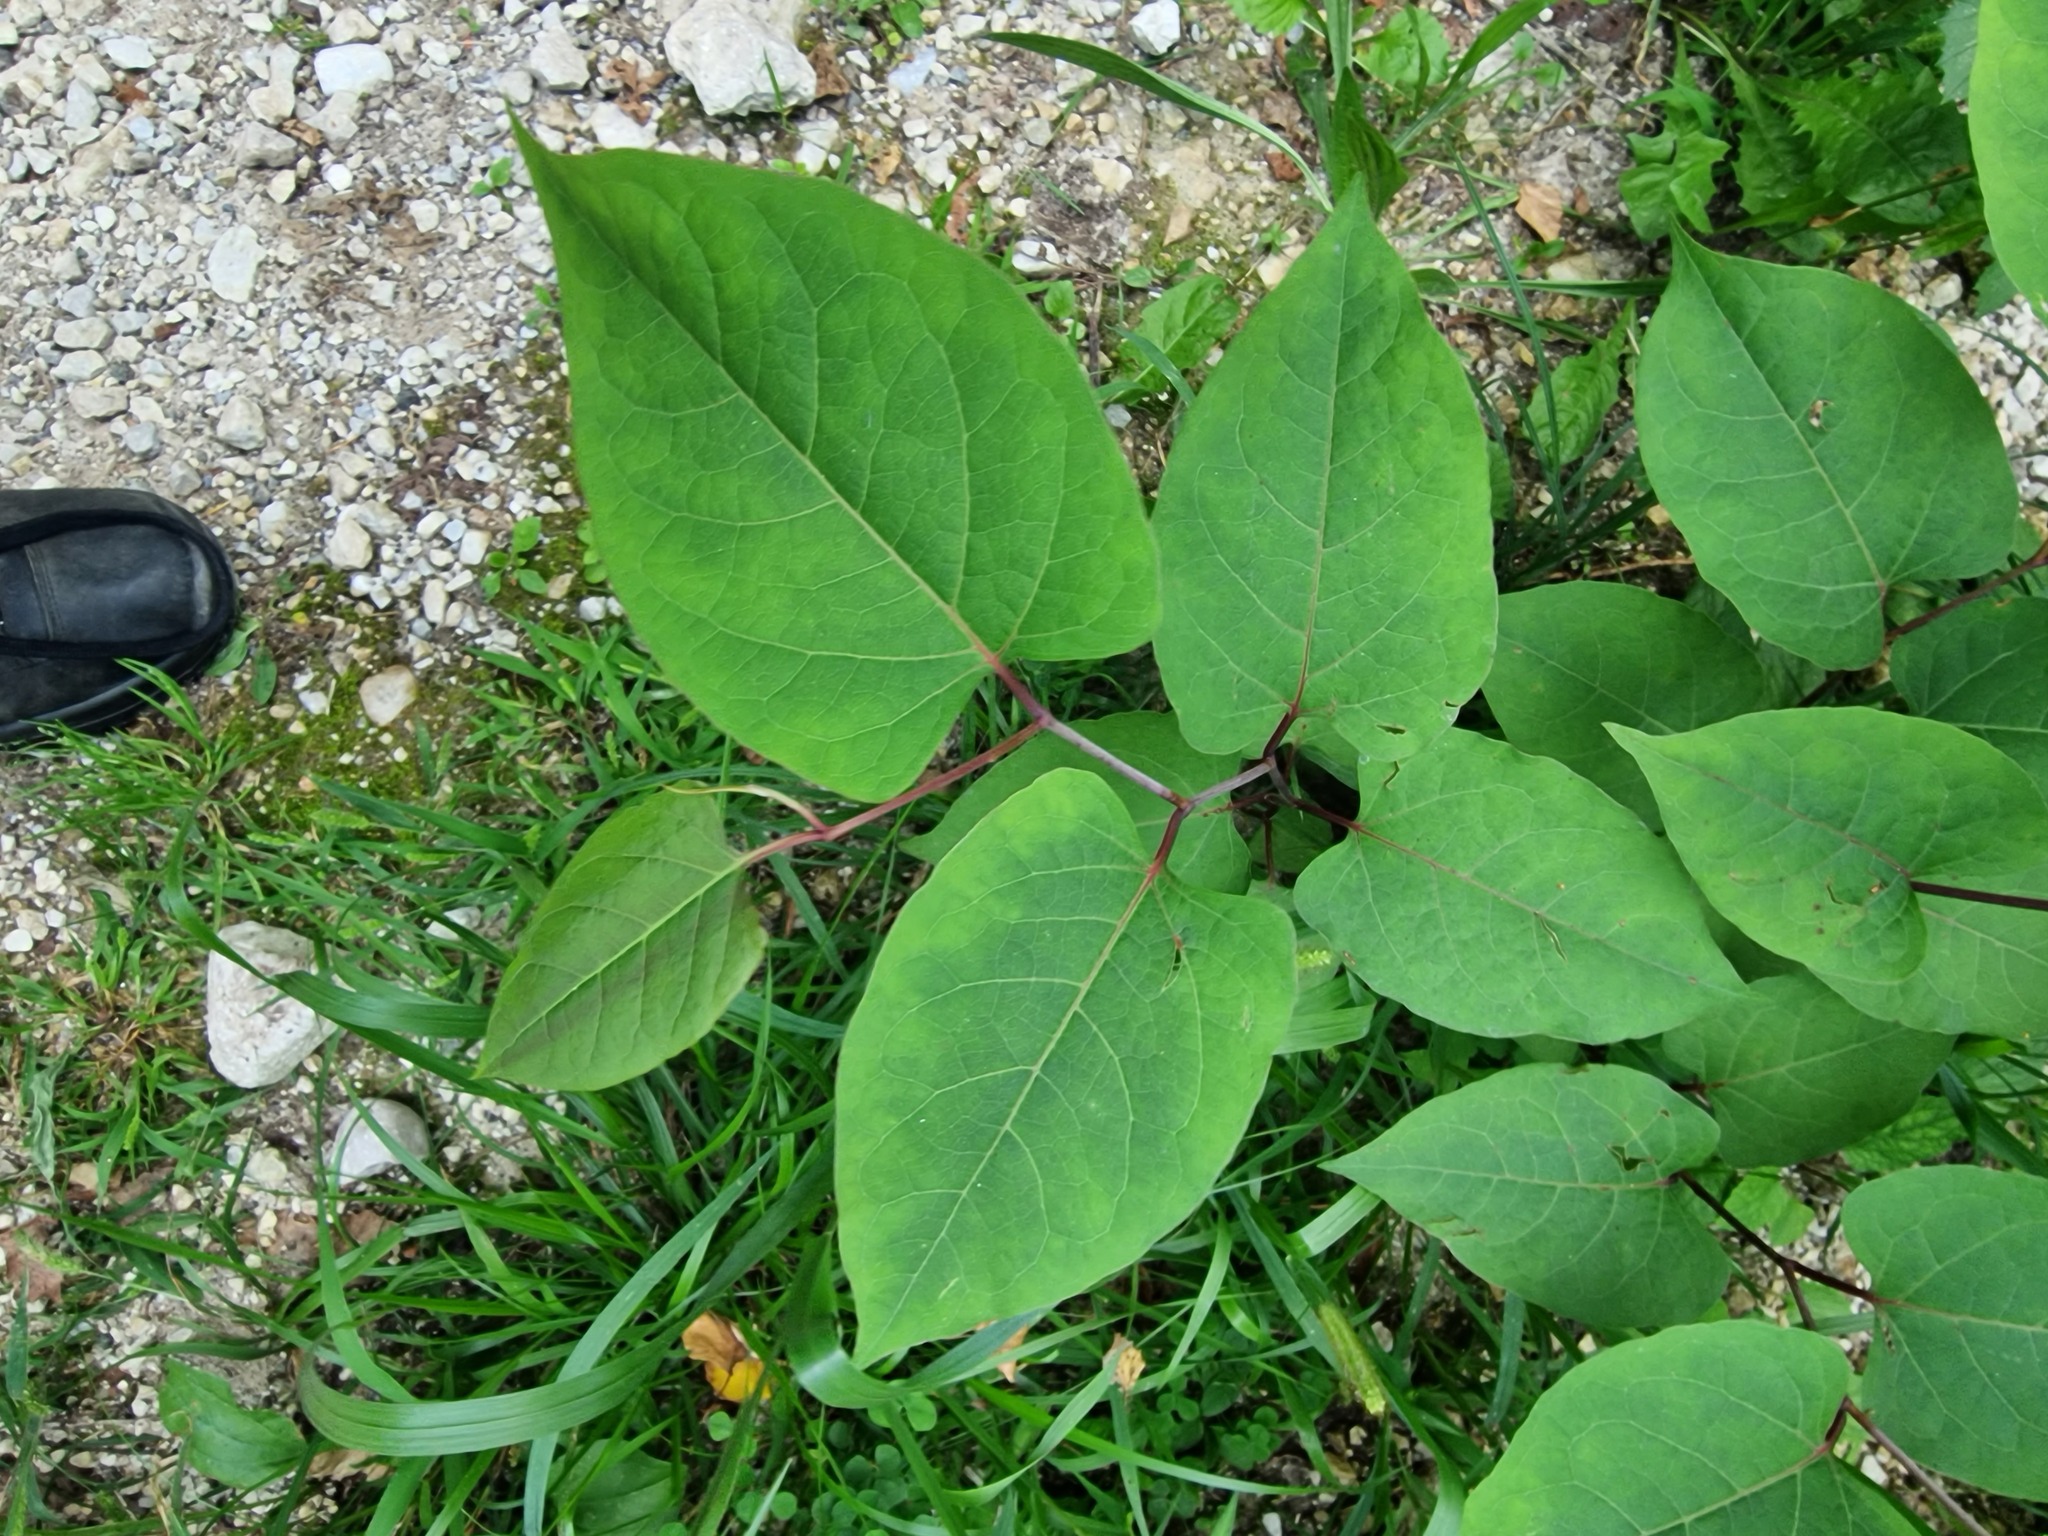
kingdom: Plantae
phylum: Tracheophyta
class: Magnoliopsida
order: Caryophyllales
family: Polygonaceae
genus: Reynoutria
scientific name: Reynoutria bohemica
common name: Bohemian knotweed
